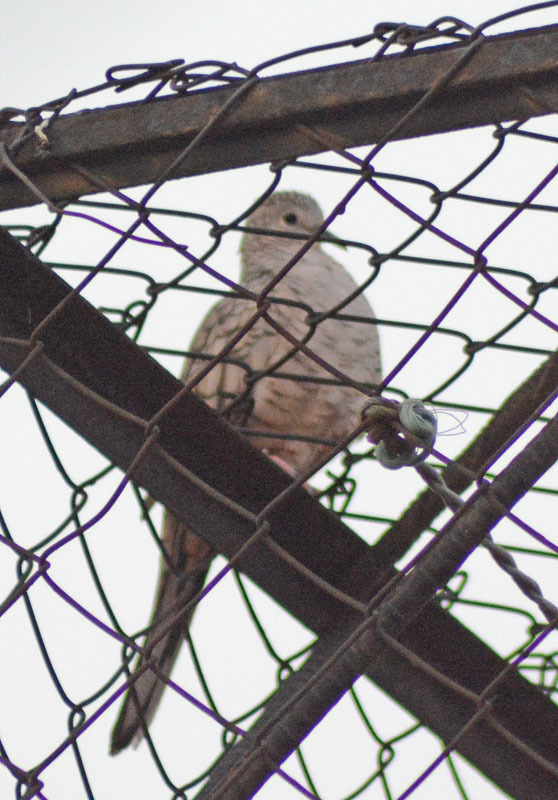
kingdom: Animalia
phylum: Chordata
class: Aves
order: Columbiformes
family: Columbidae
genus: Columbina
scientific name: Columbina inca
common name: Inca dove
